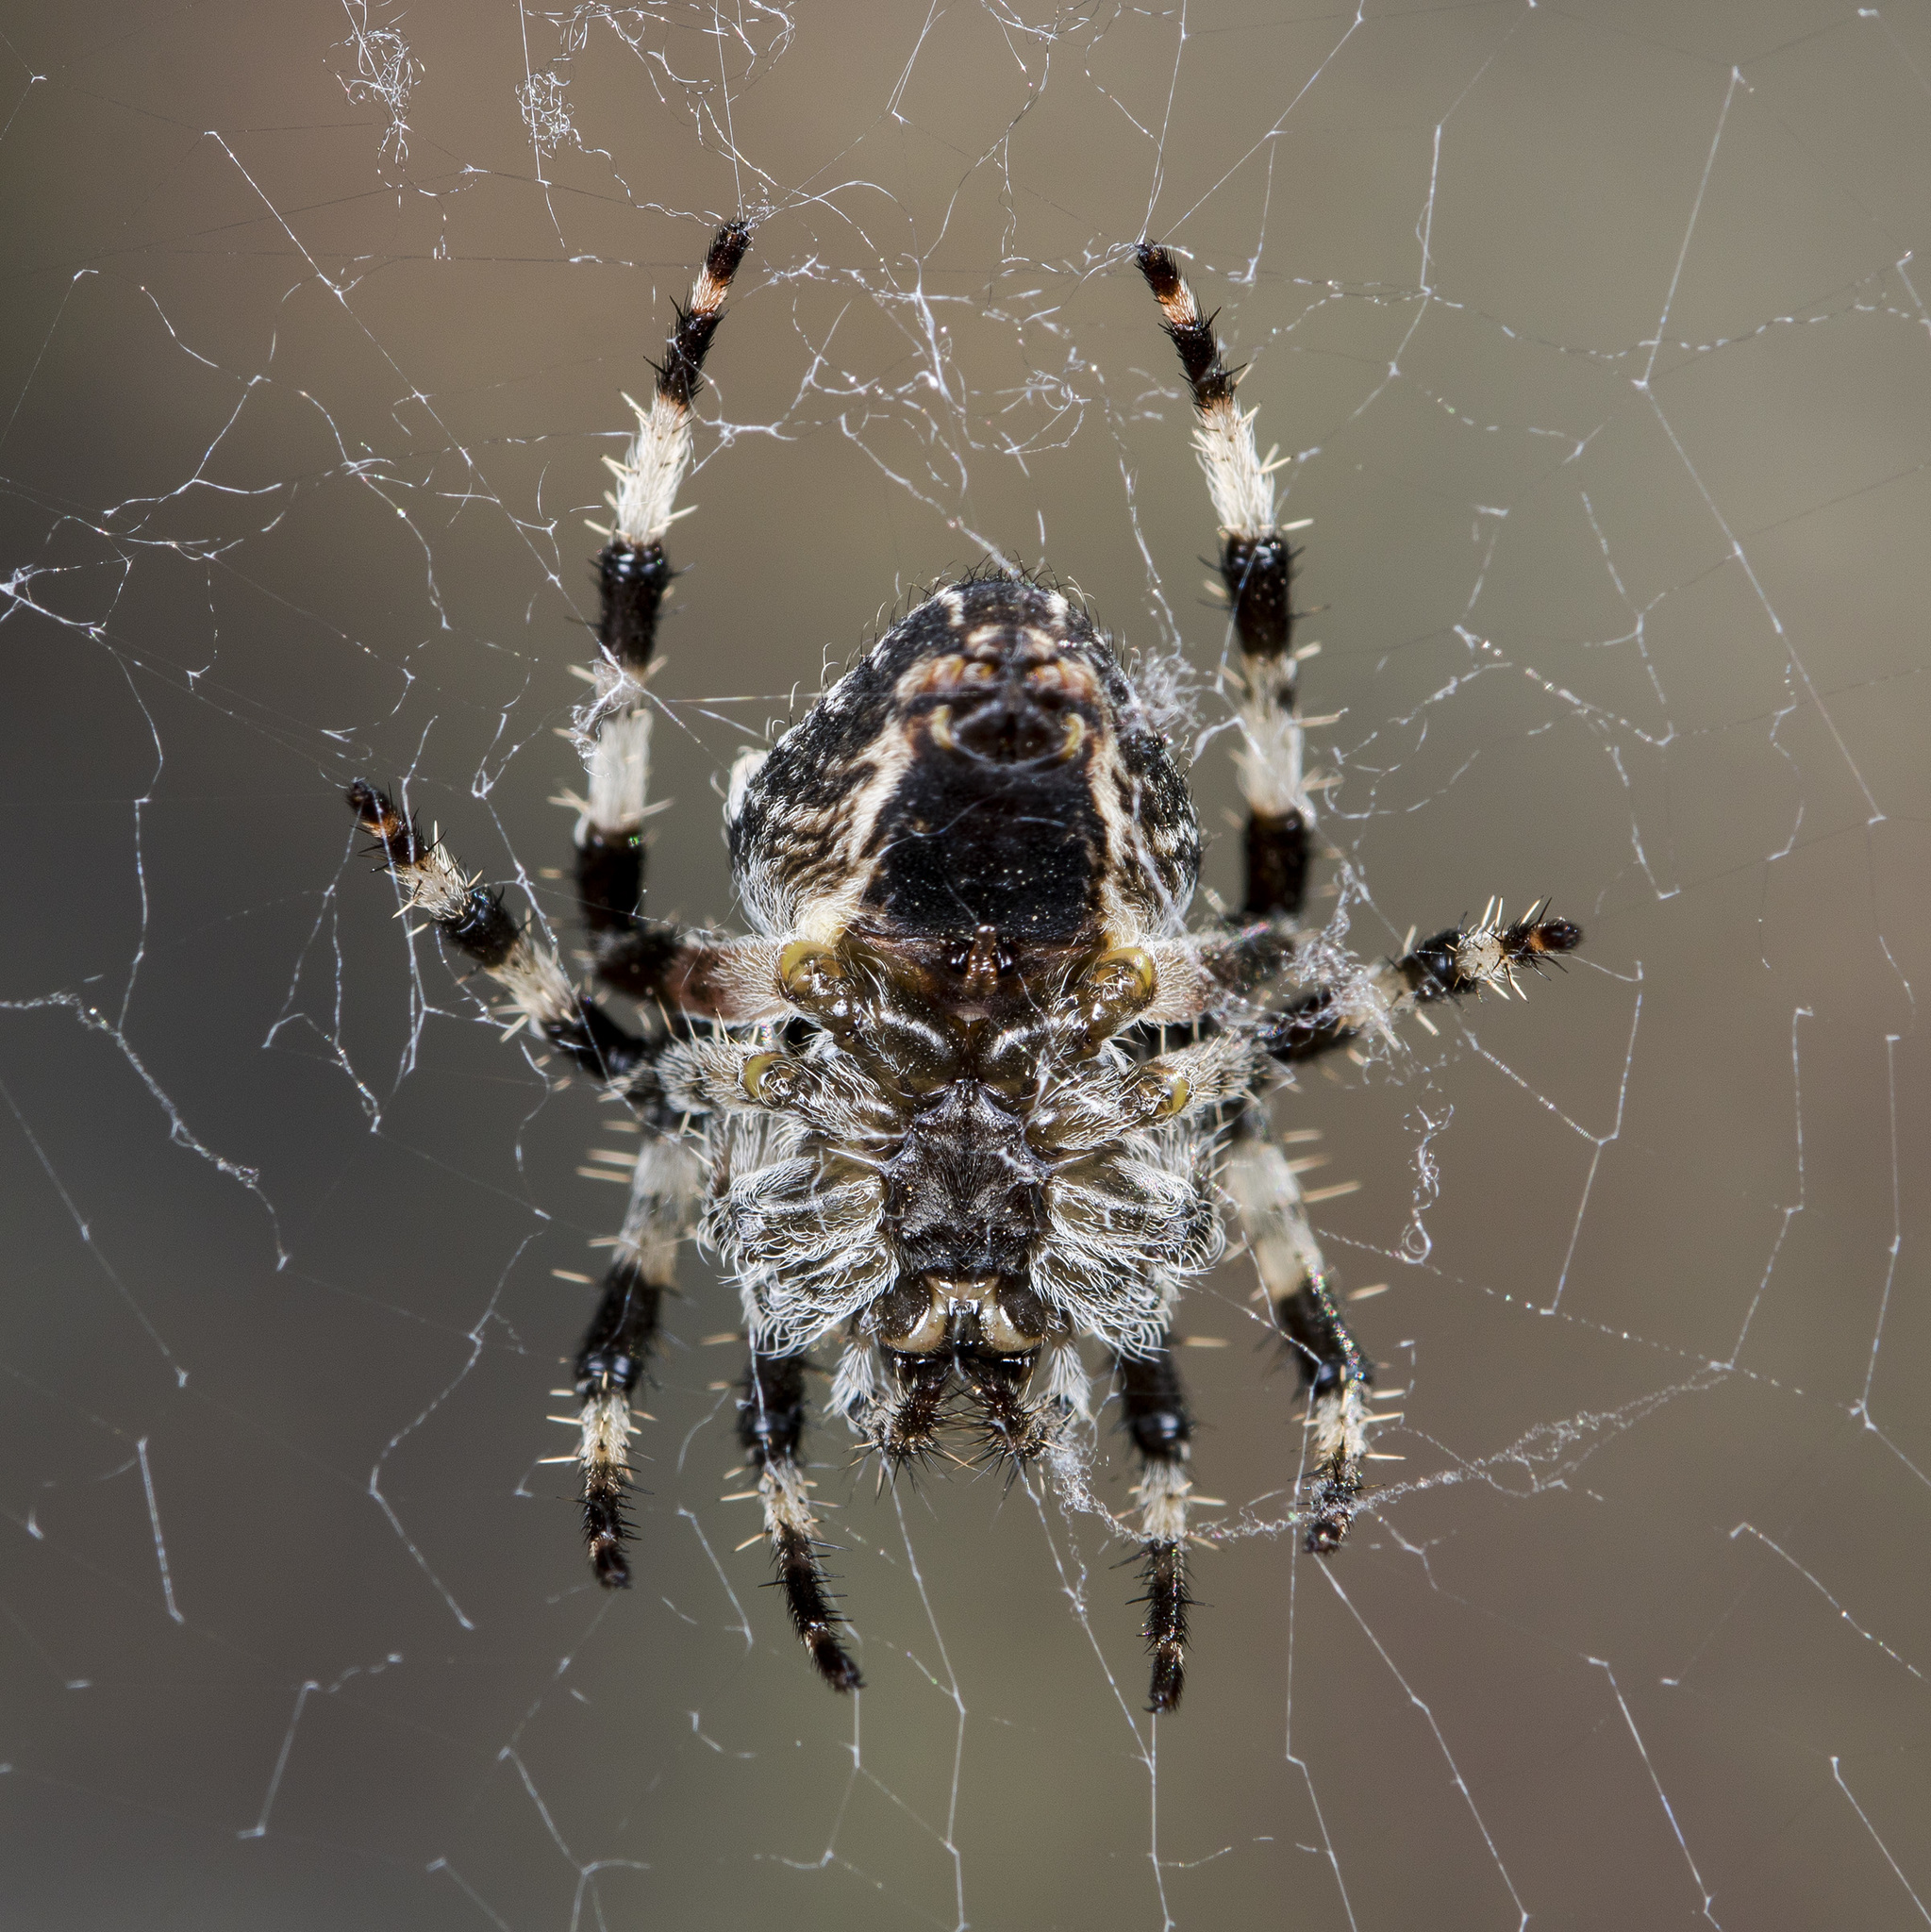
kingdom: Animalia
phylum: Arthropoda
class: Arachnida
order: Araneae
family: Araneidae
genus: Araneus
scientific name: Araneus tartaricus
